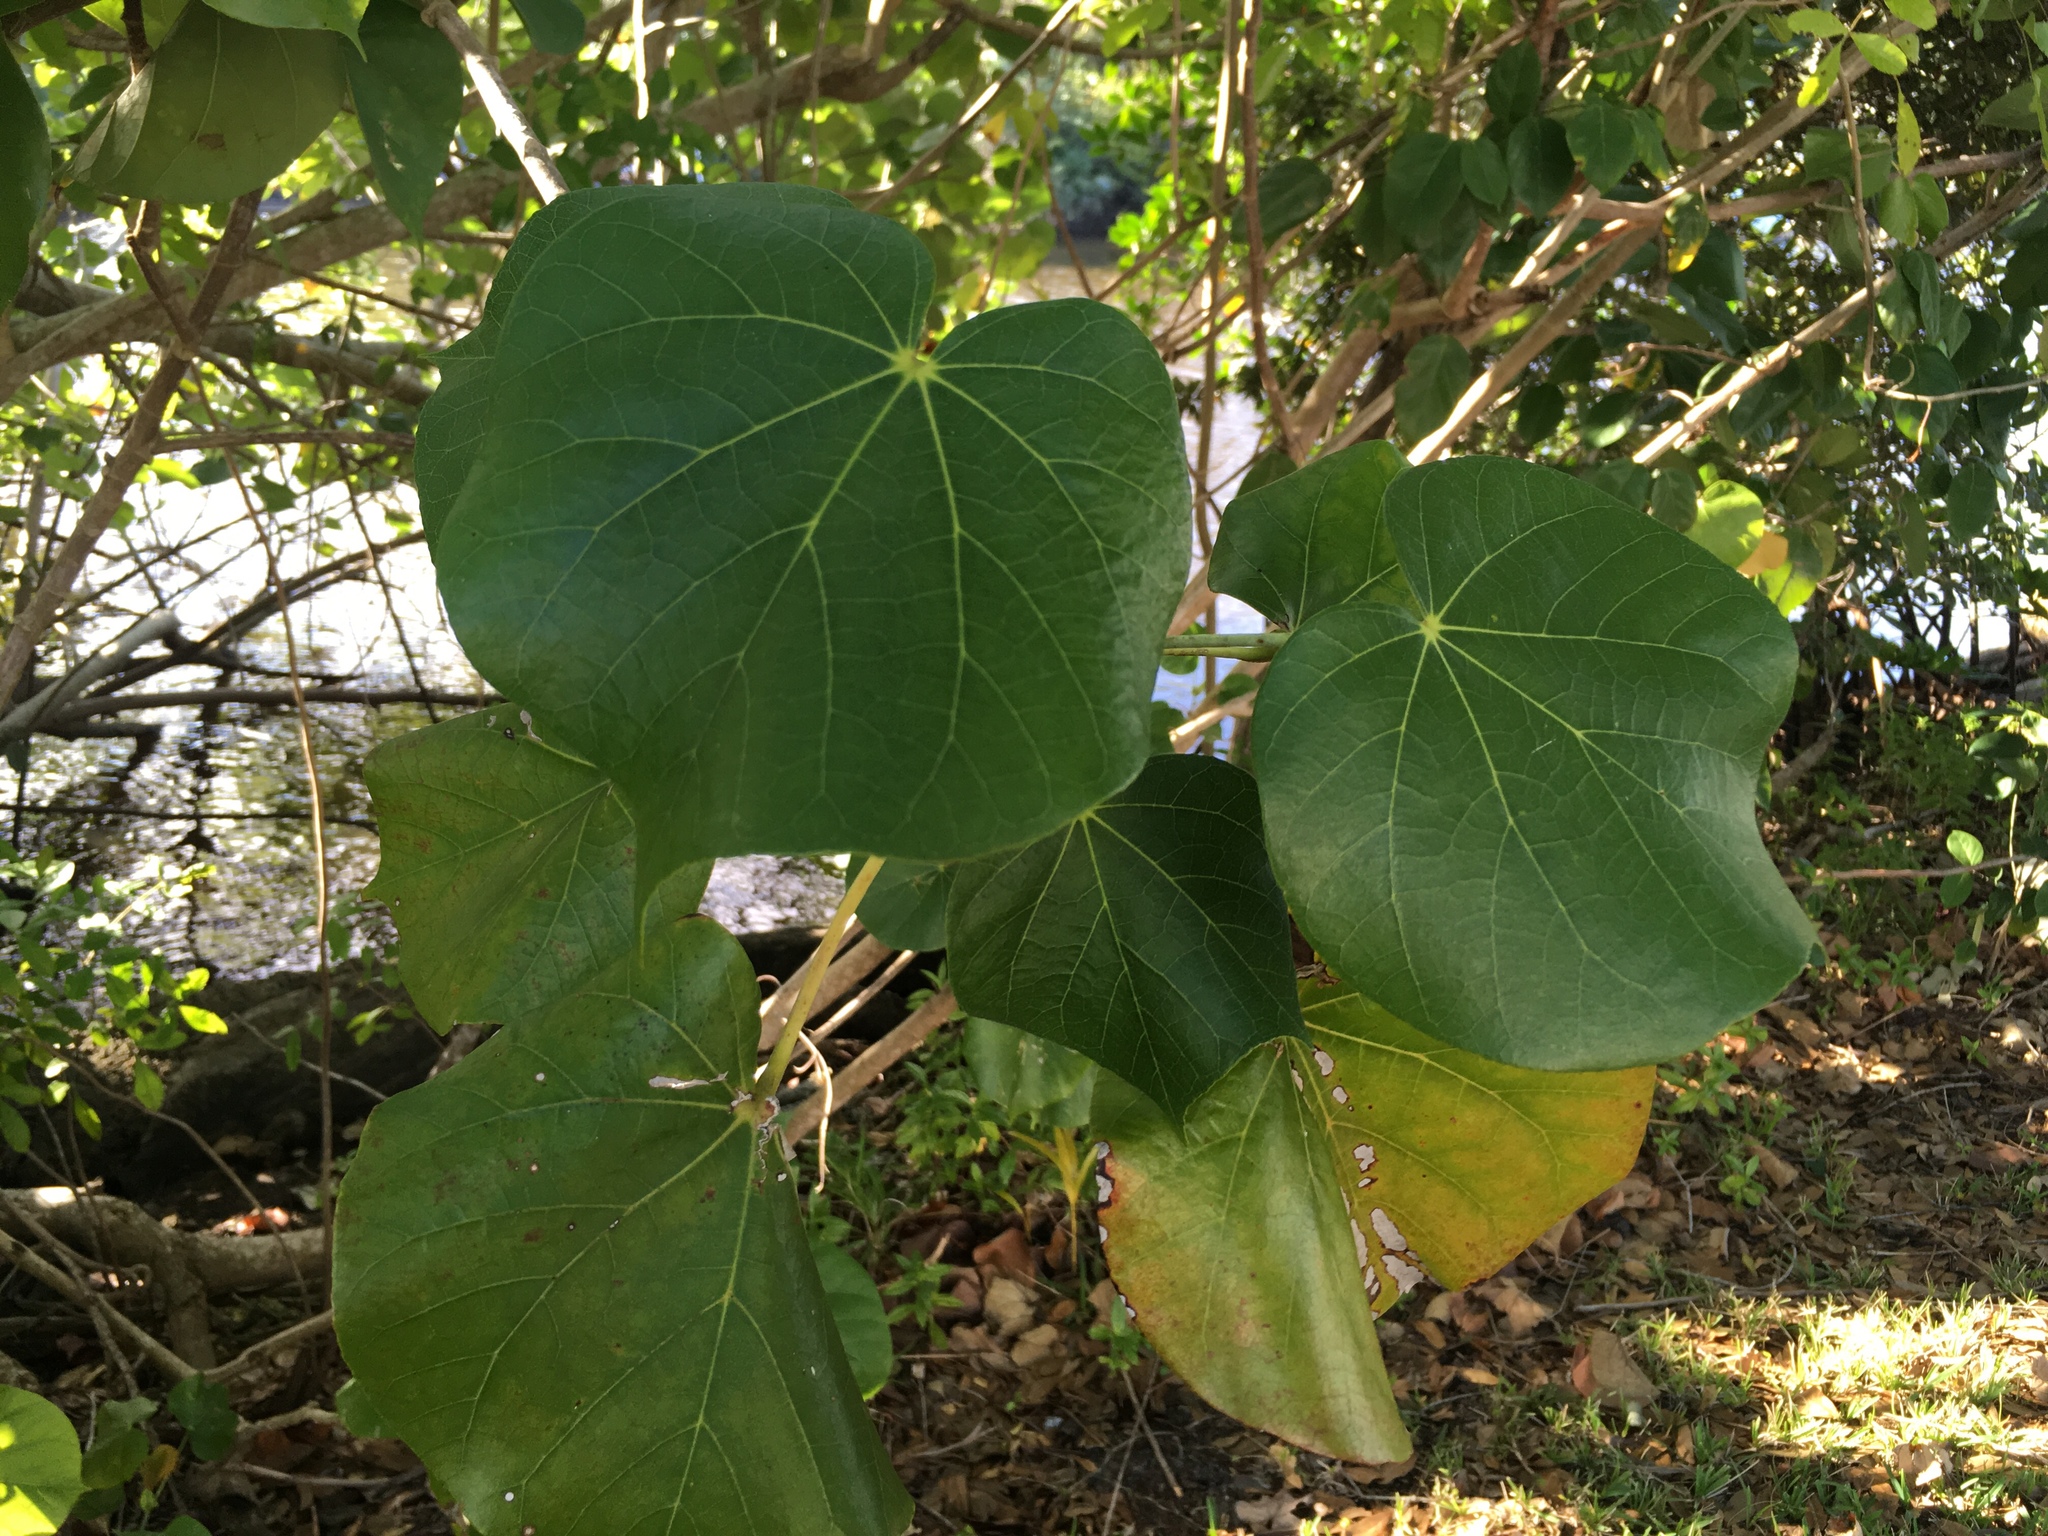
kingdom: Plantae
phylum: Tracheophyta
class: Magnoliopsida
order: Malvales
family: Malvaceae
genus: Talipariti
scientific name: Talipariti tiliaceum
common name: Sea hibiscus
